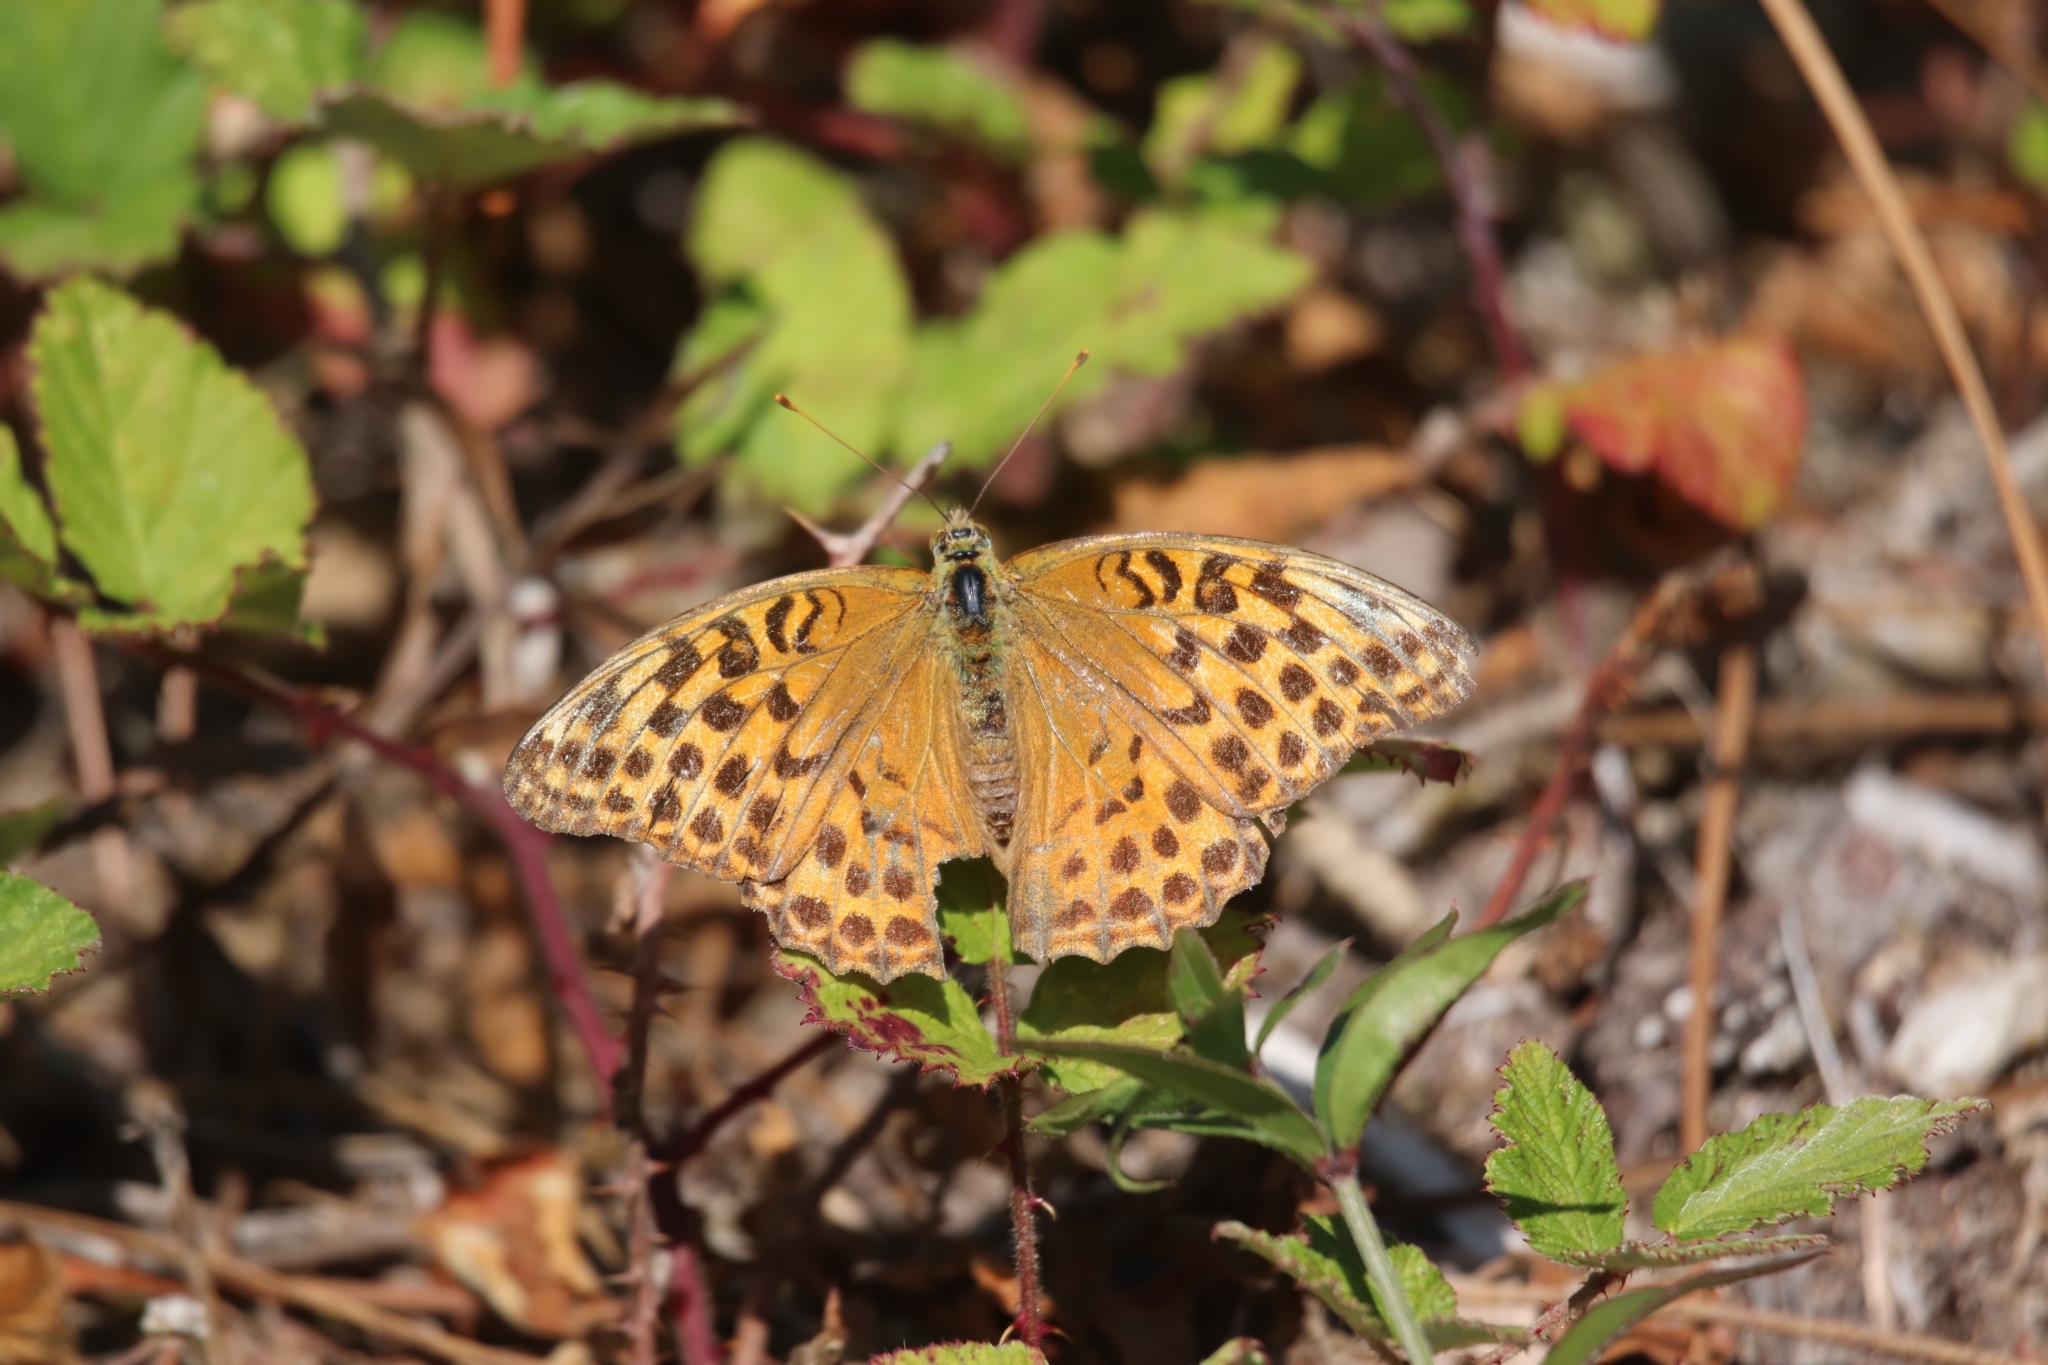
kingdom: Animalia
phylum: Arthropoda
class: Insecta
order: Lepidoptera
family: Nymphalidae
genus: Argynnis
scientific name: Argynnis paphia
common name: Silver-washed fritillary
